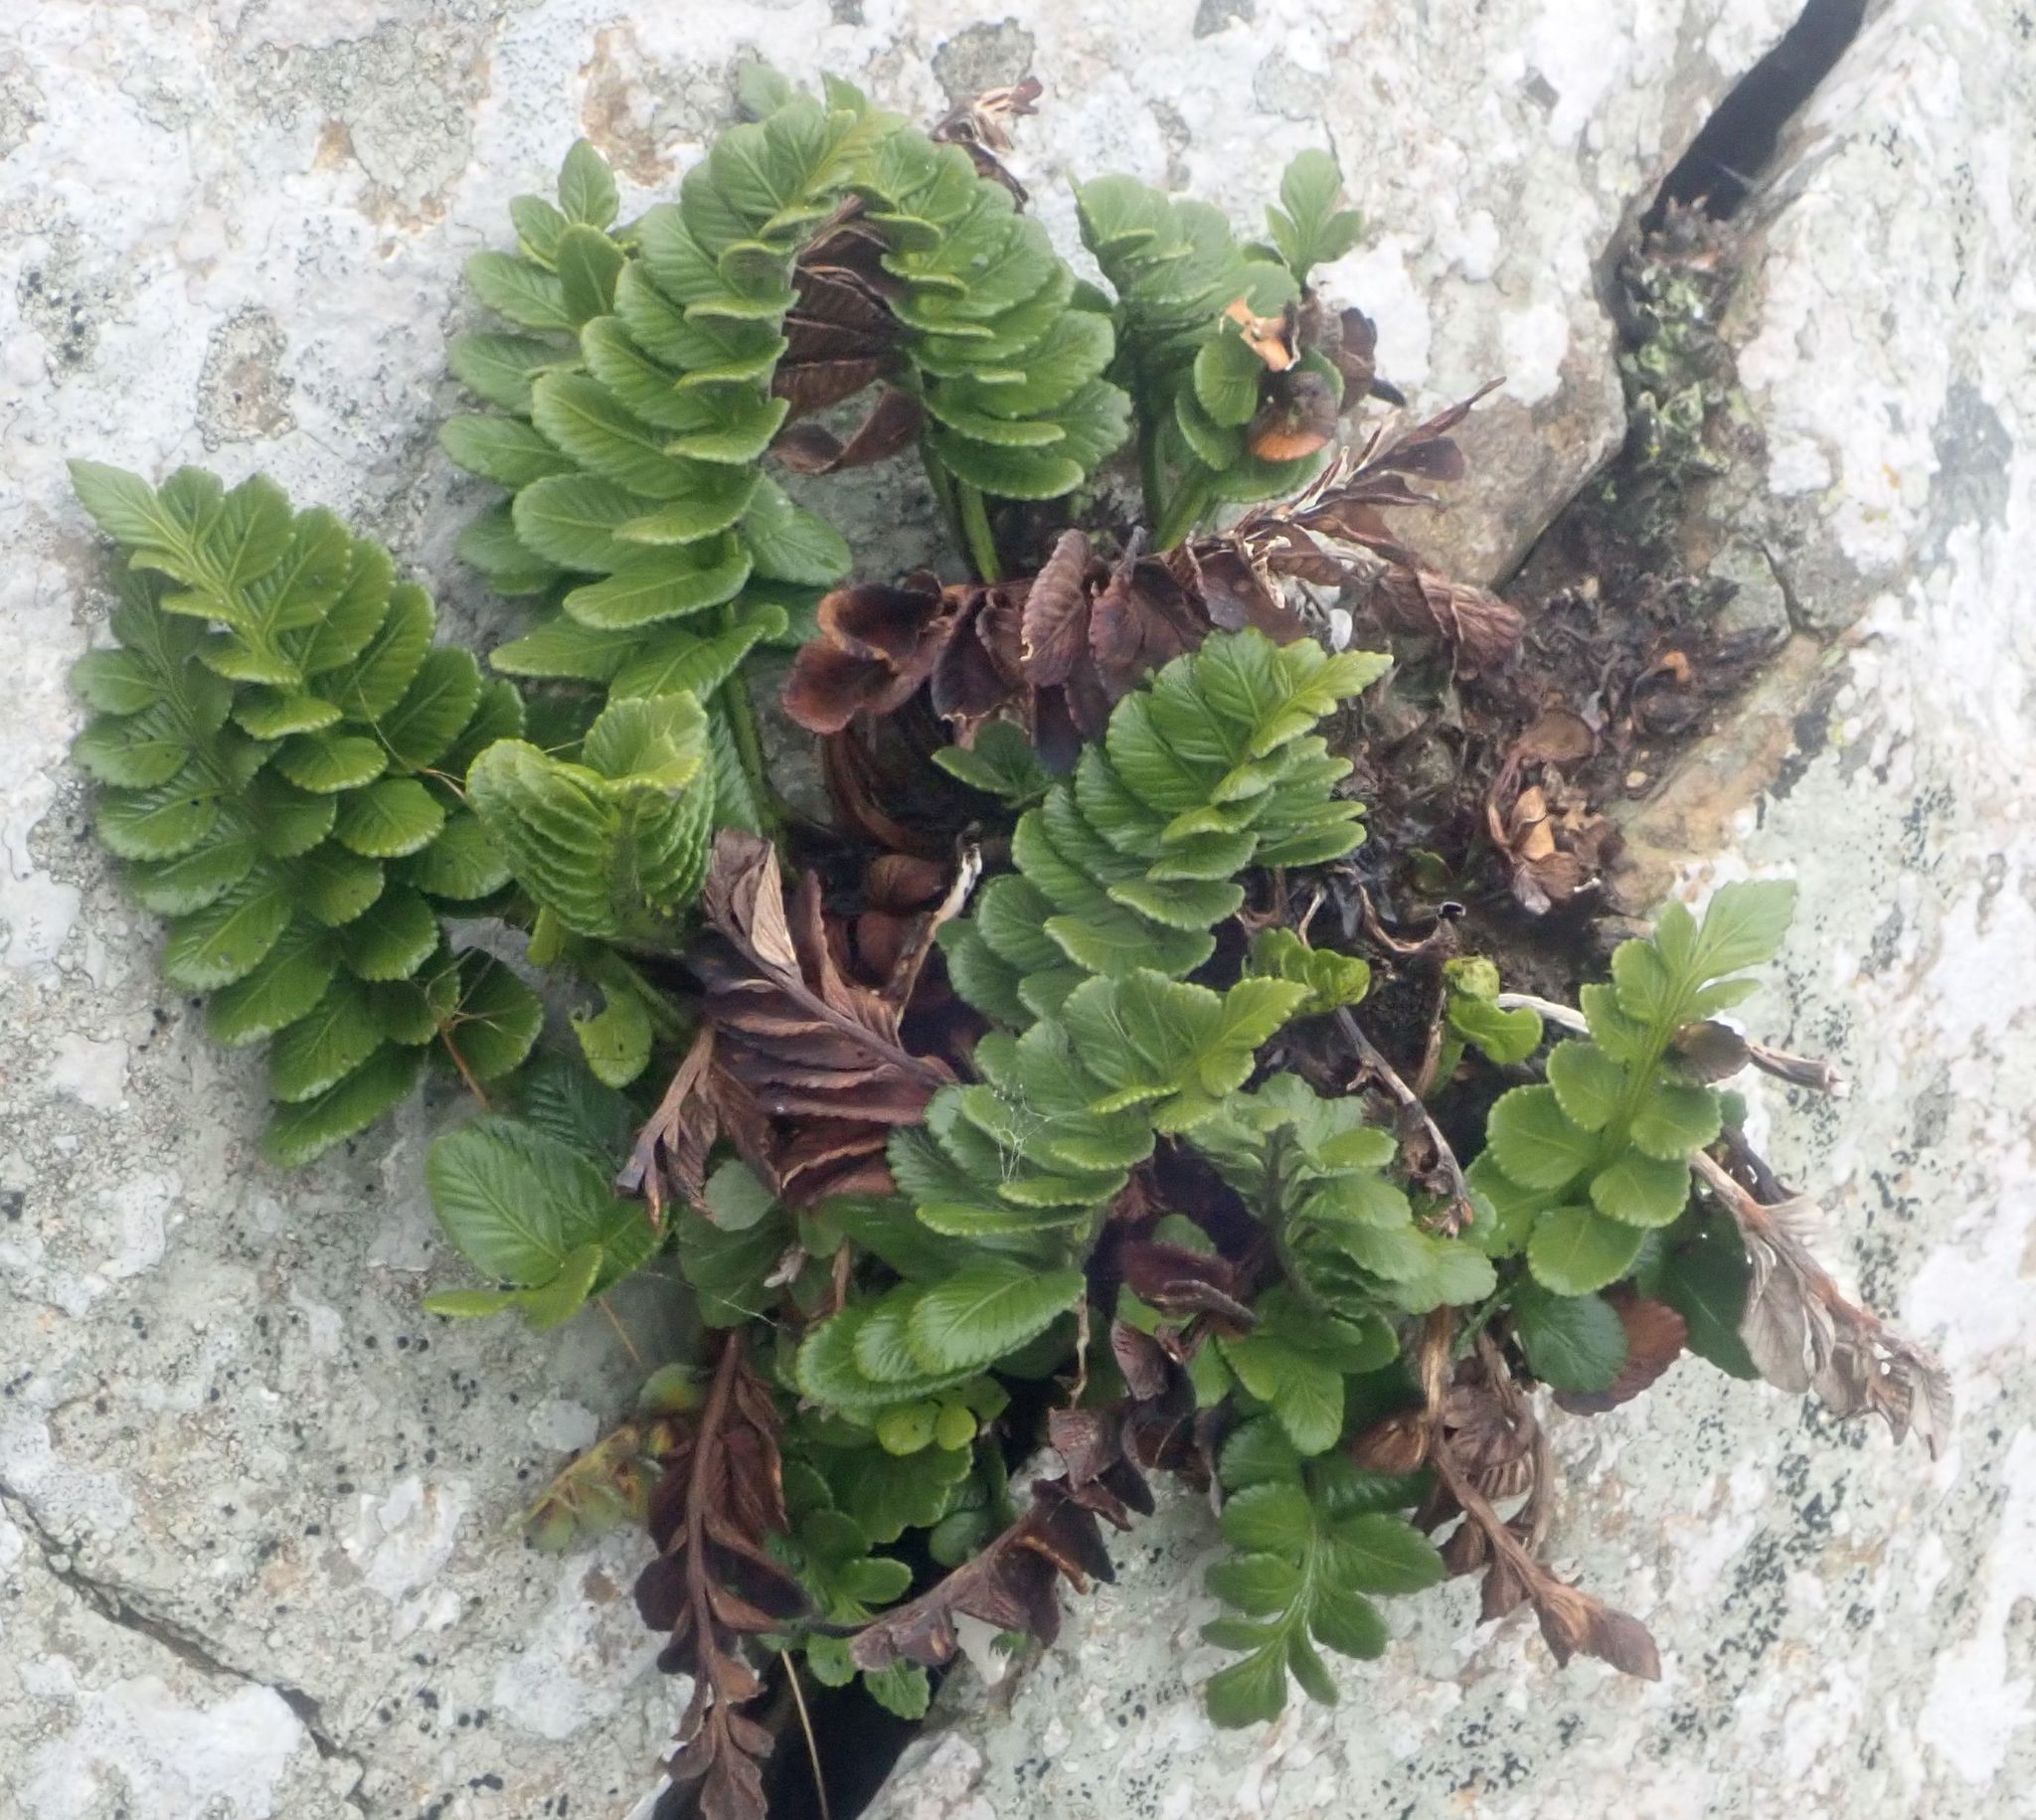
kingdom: Plantae
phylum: Tracheophyta
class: Polypodiopsida
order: Polypodiales
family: Aspleniaceae
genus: Asplenium
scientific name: Asplenium obtusatum
